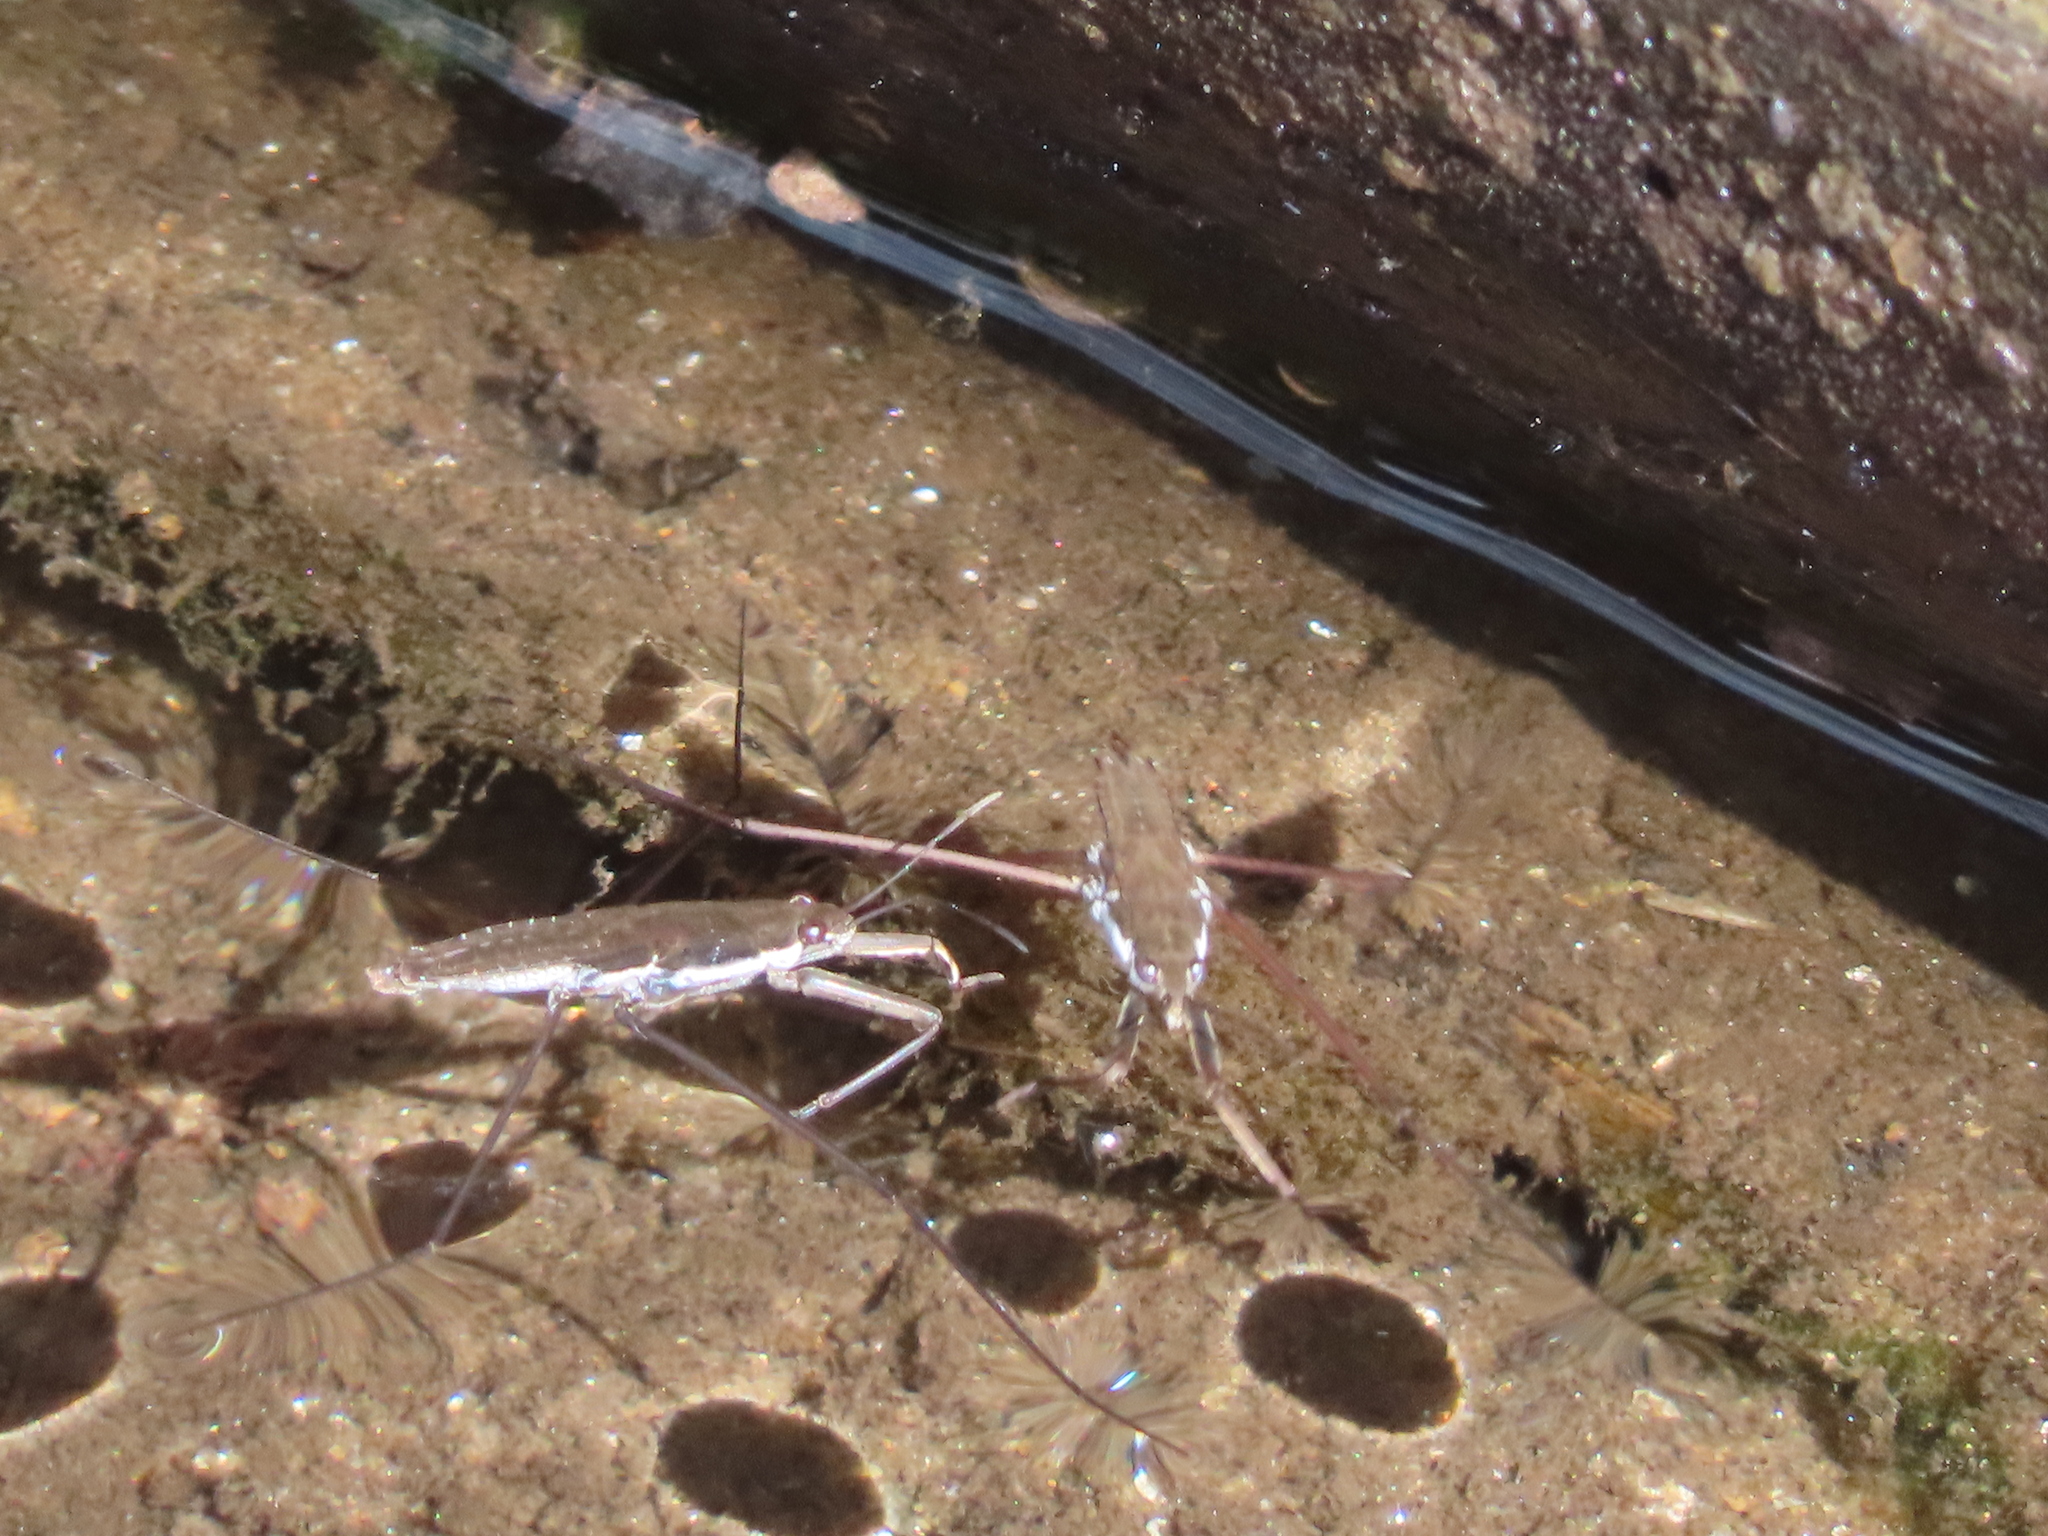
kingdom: Animalia
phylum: Arthropoda
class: Insecta
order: Hemiptera
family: Gerridae
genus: Aquarius
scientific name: Aquarius
